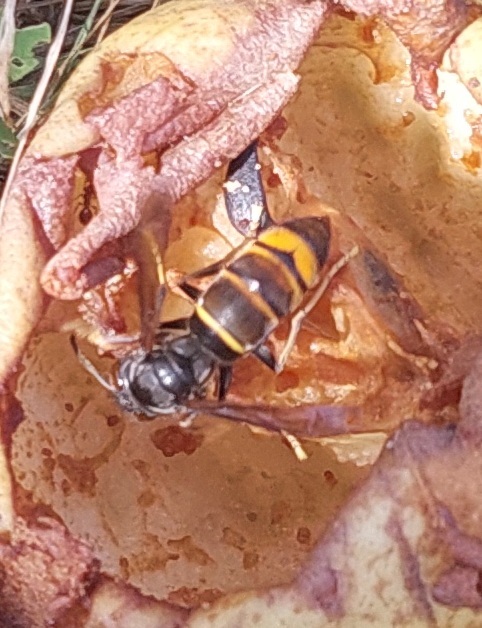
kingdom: Animalia
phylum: Arthropoda
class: Insecta
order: Hymenoptera
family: Vespidae
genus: Vespa
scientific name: Vespa velutina
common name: Asian hornet
